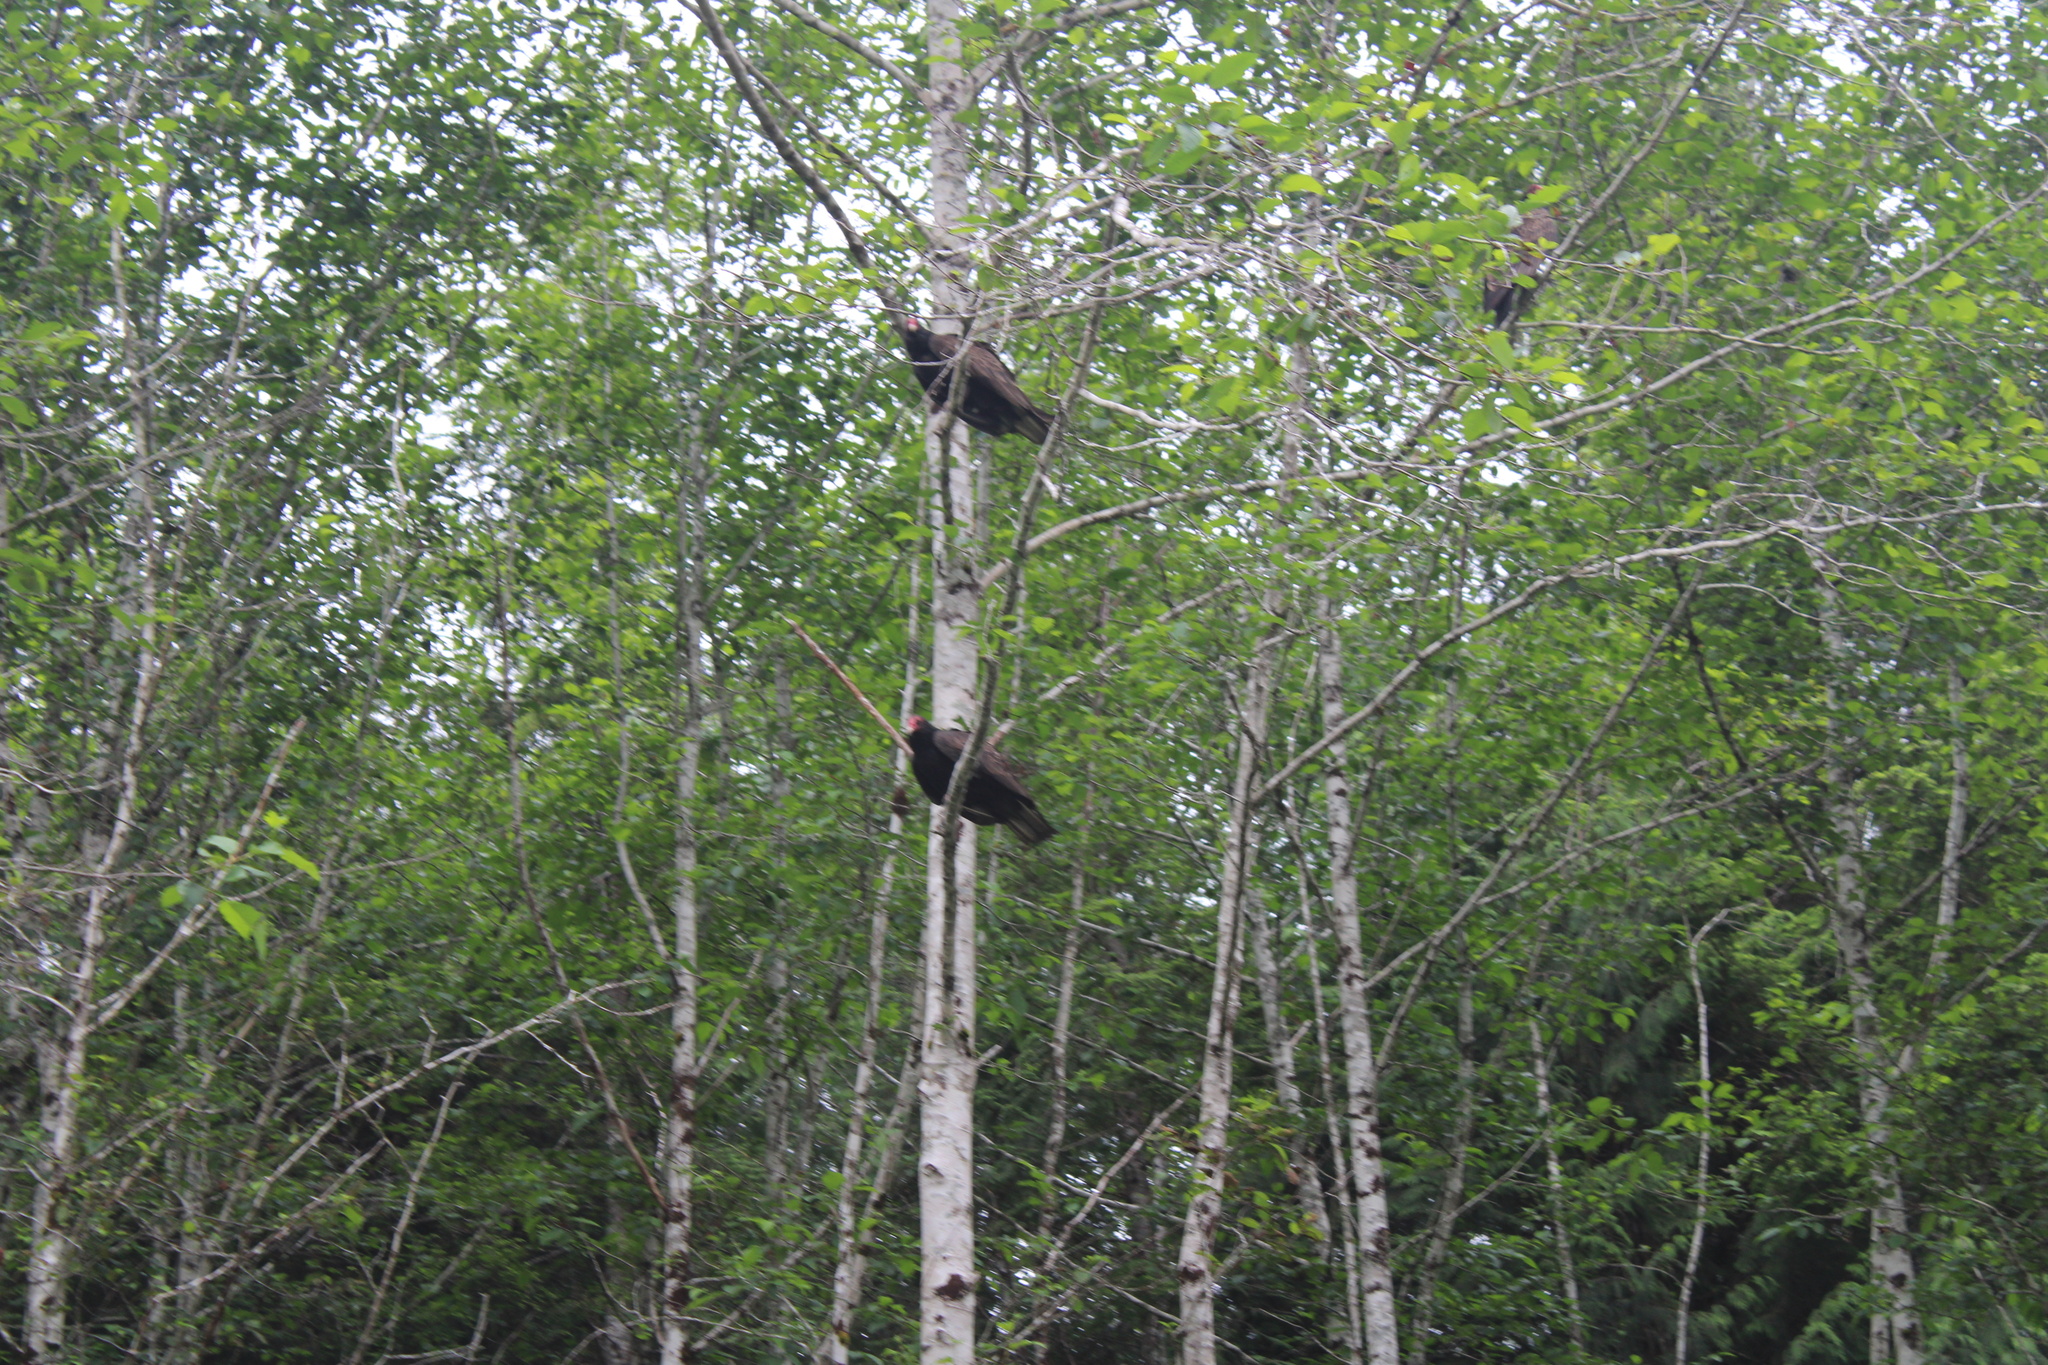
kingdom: Animalia
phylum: Chordata
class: Aves
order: Accipitriformes
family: Cathartidae
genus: Cathartes
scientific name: Cathartes aura
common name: Turkey vulture
